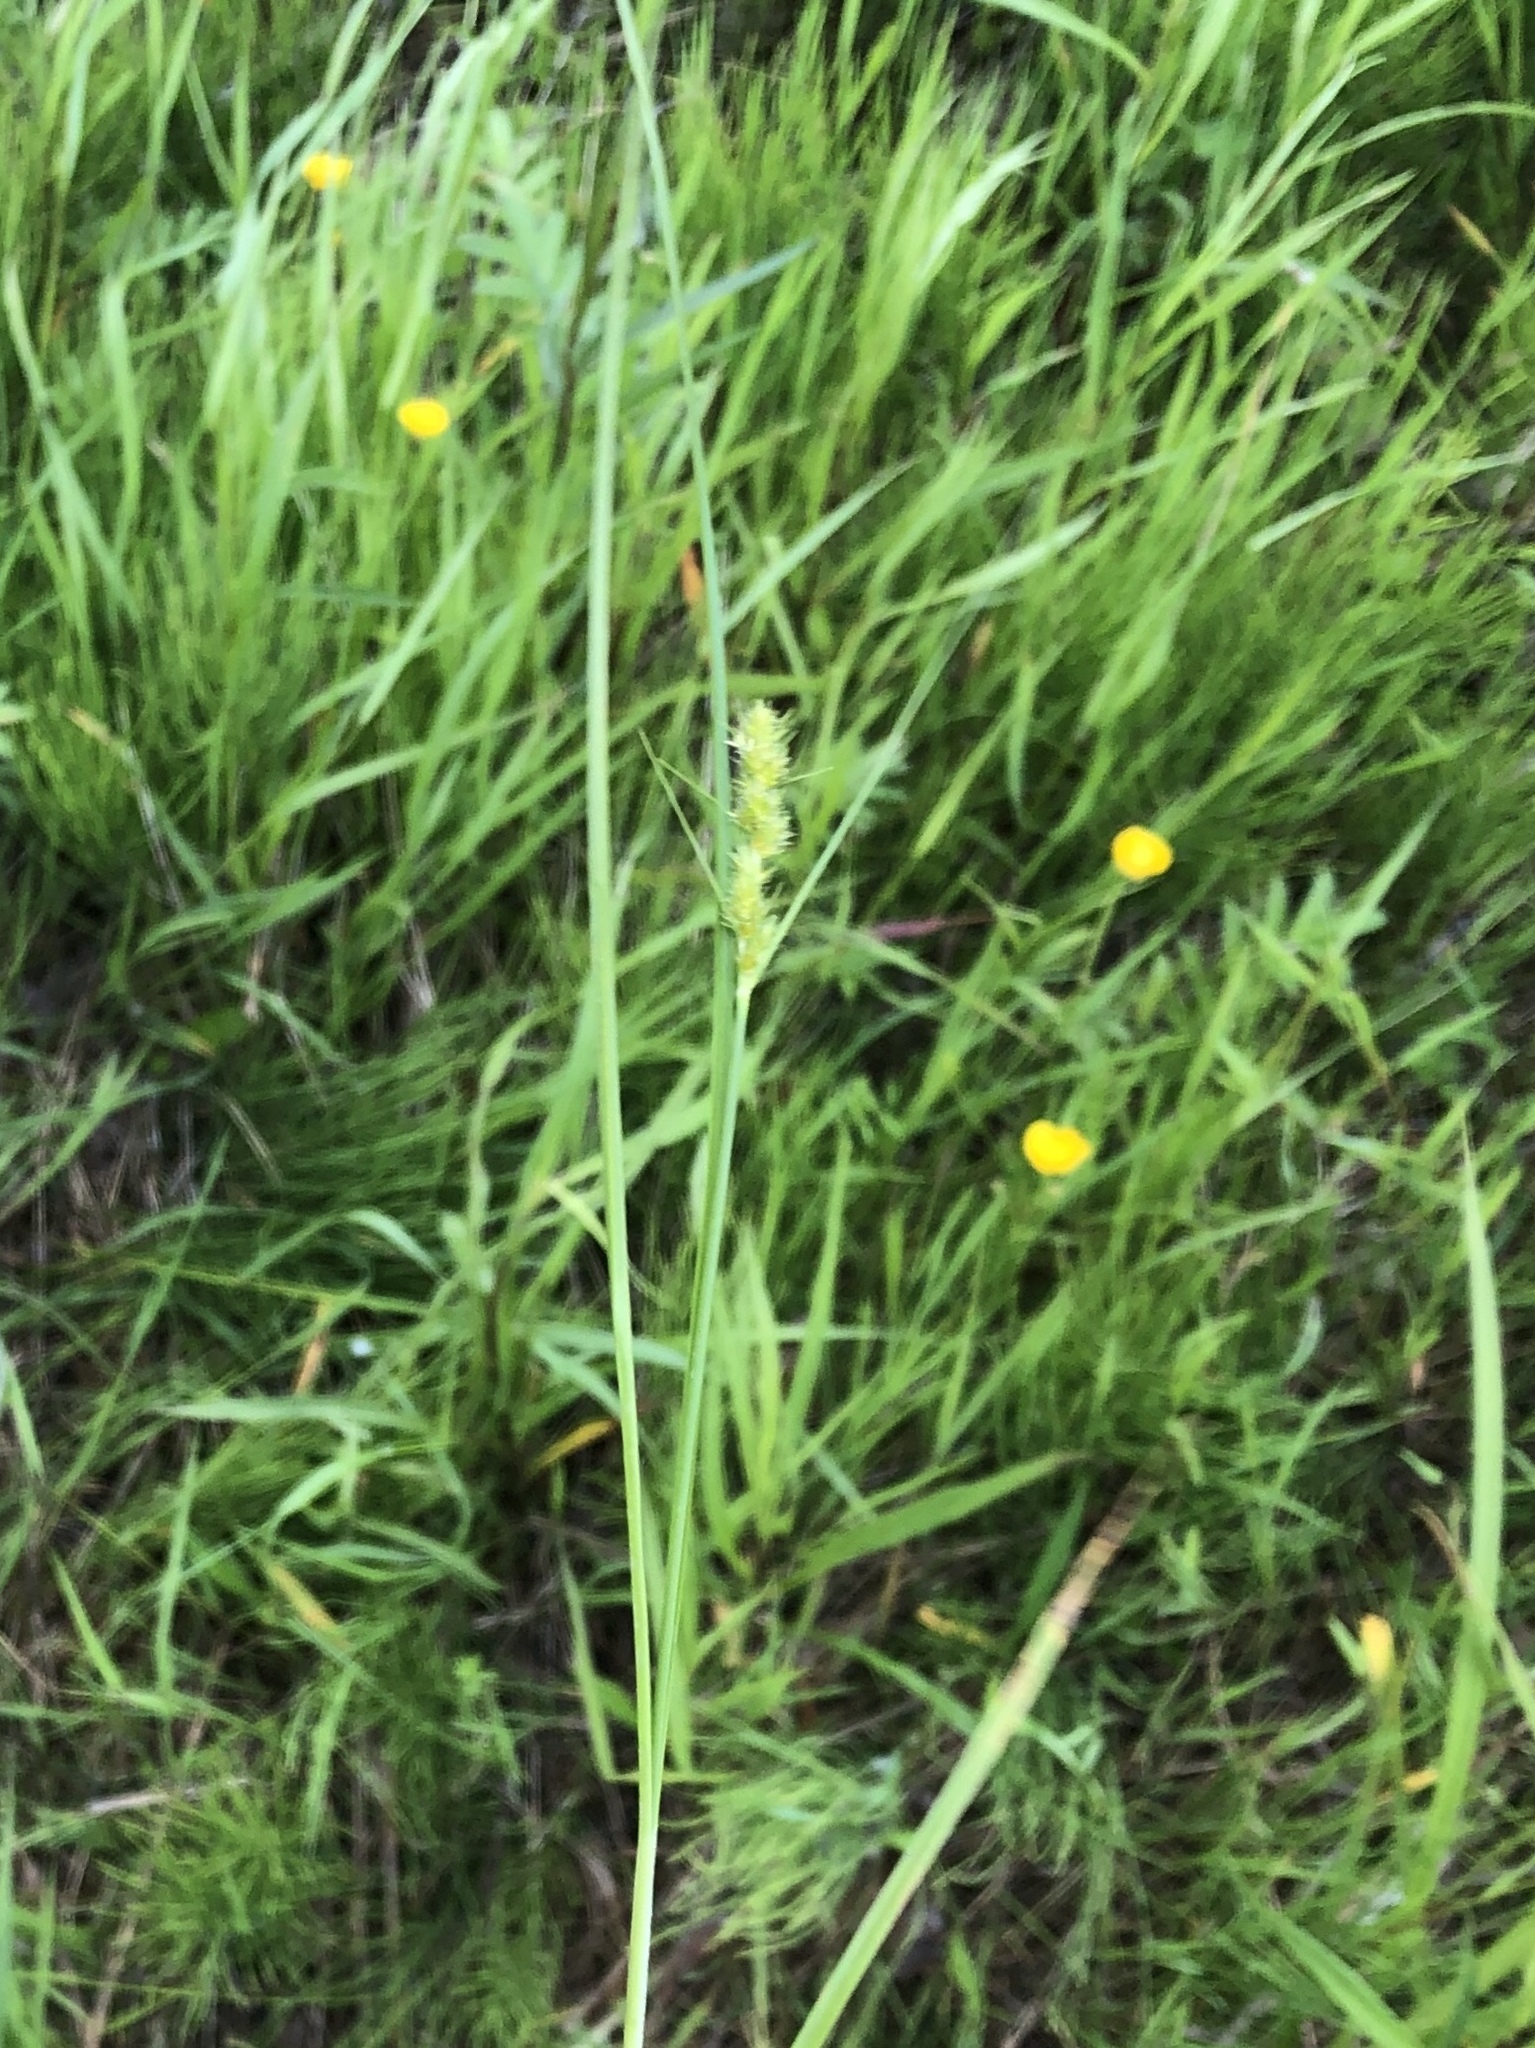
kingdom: Plantae
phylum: Tracheophyta
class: Liliopsida
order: Poales
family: Cyperaceae
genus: Carex
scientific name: Carex vulpinoidea
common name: American fox-sedge
